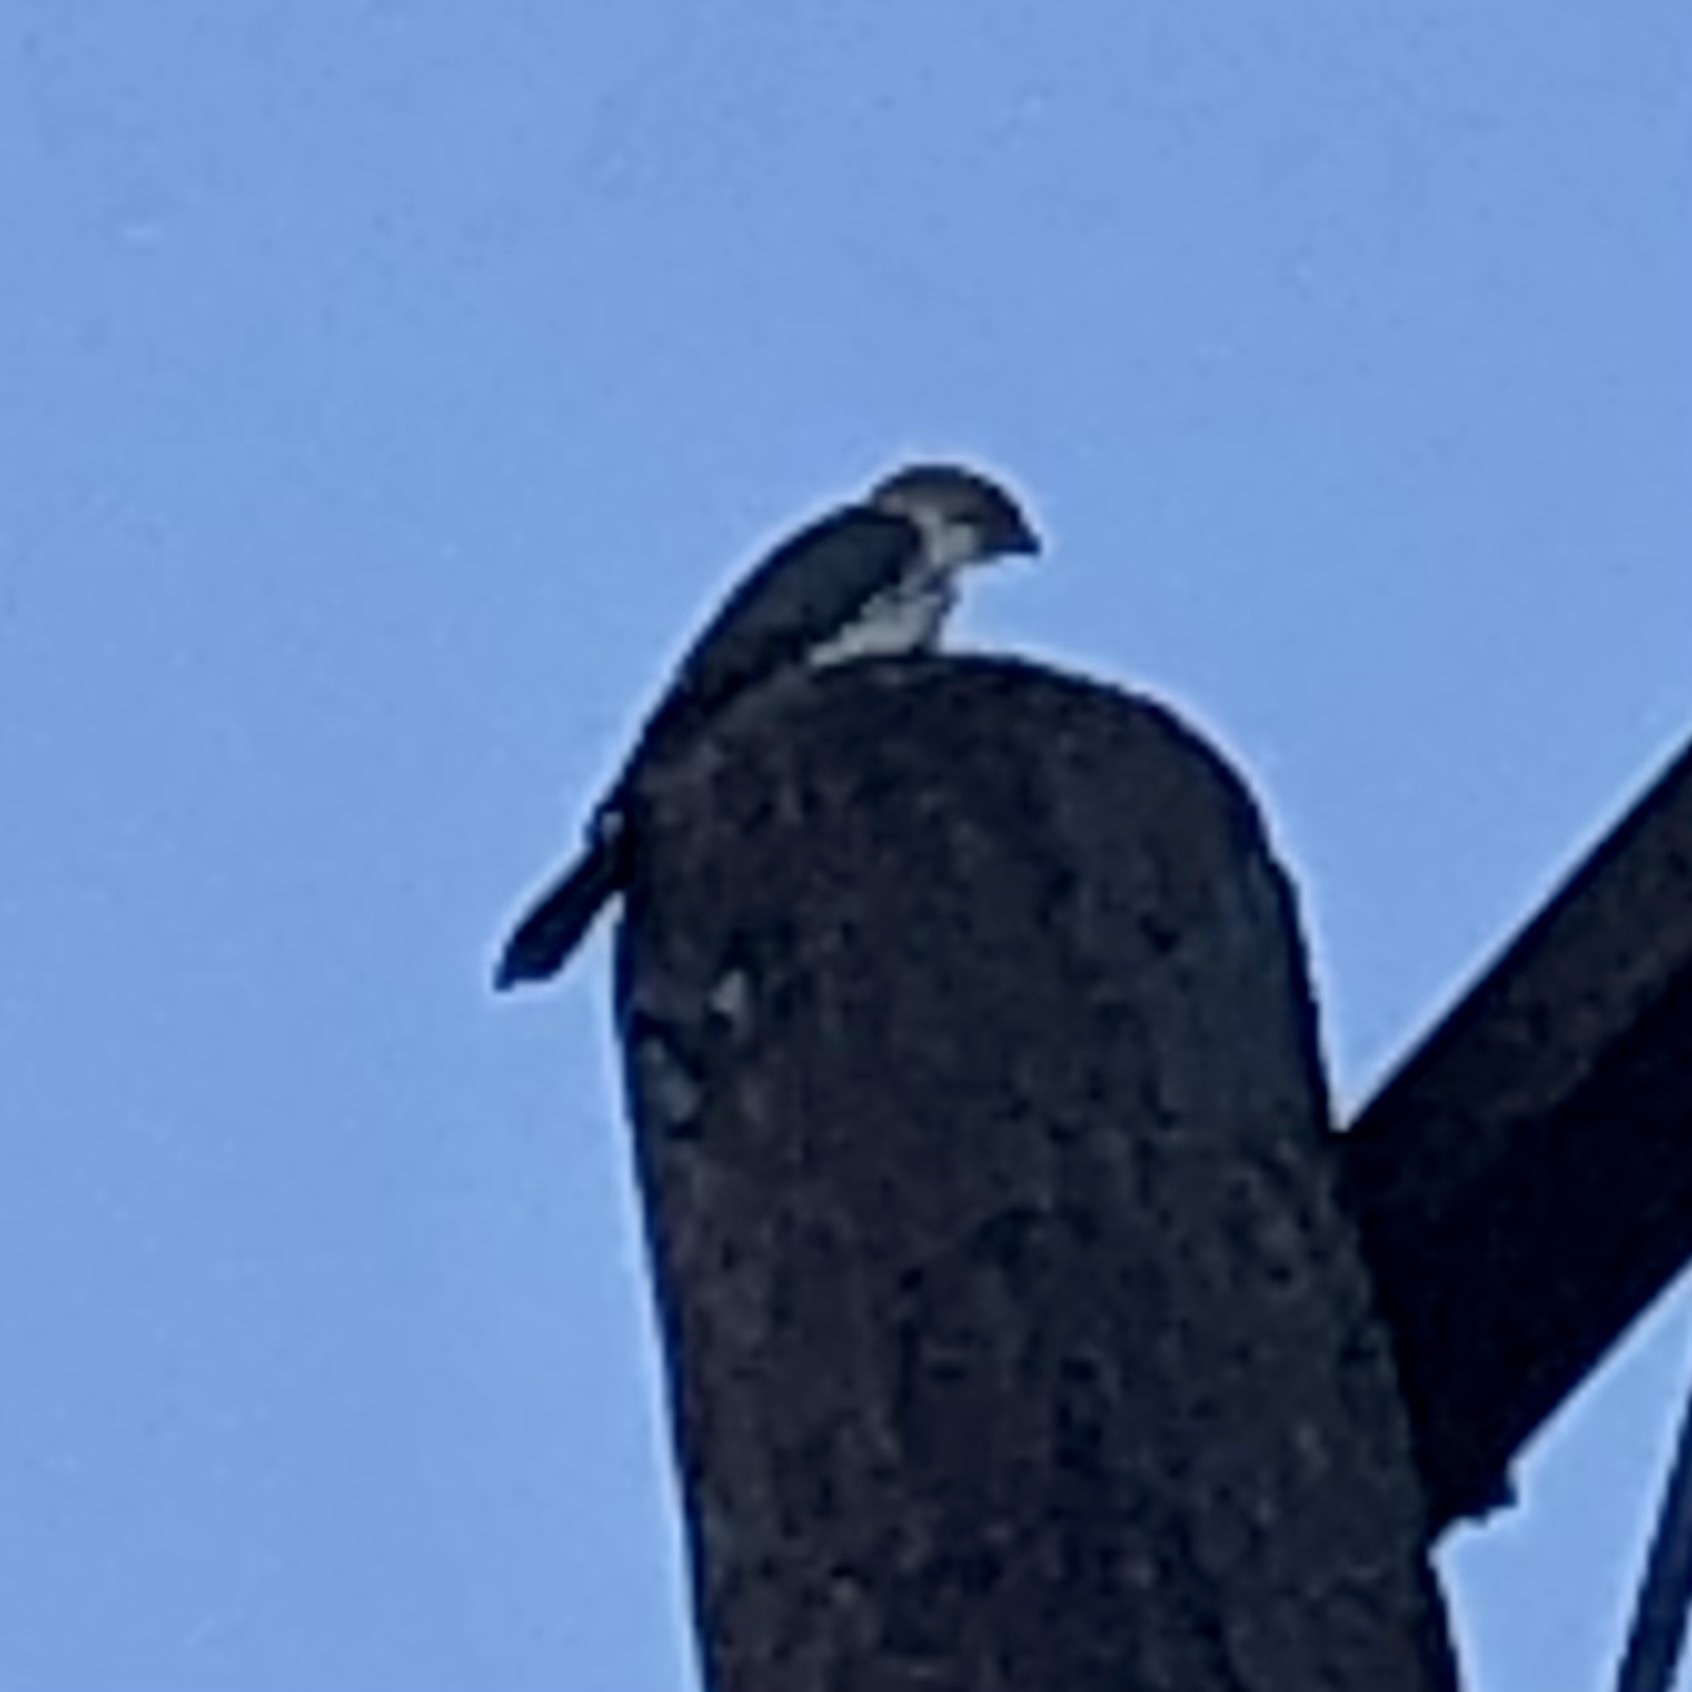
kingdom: Animalia
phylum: Chordata
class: Aves
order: Accipitriformes
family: Accipitridae
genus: Accipiter
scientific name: Accipiter cooperii
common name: Cooper's hawk
